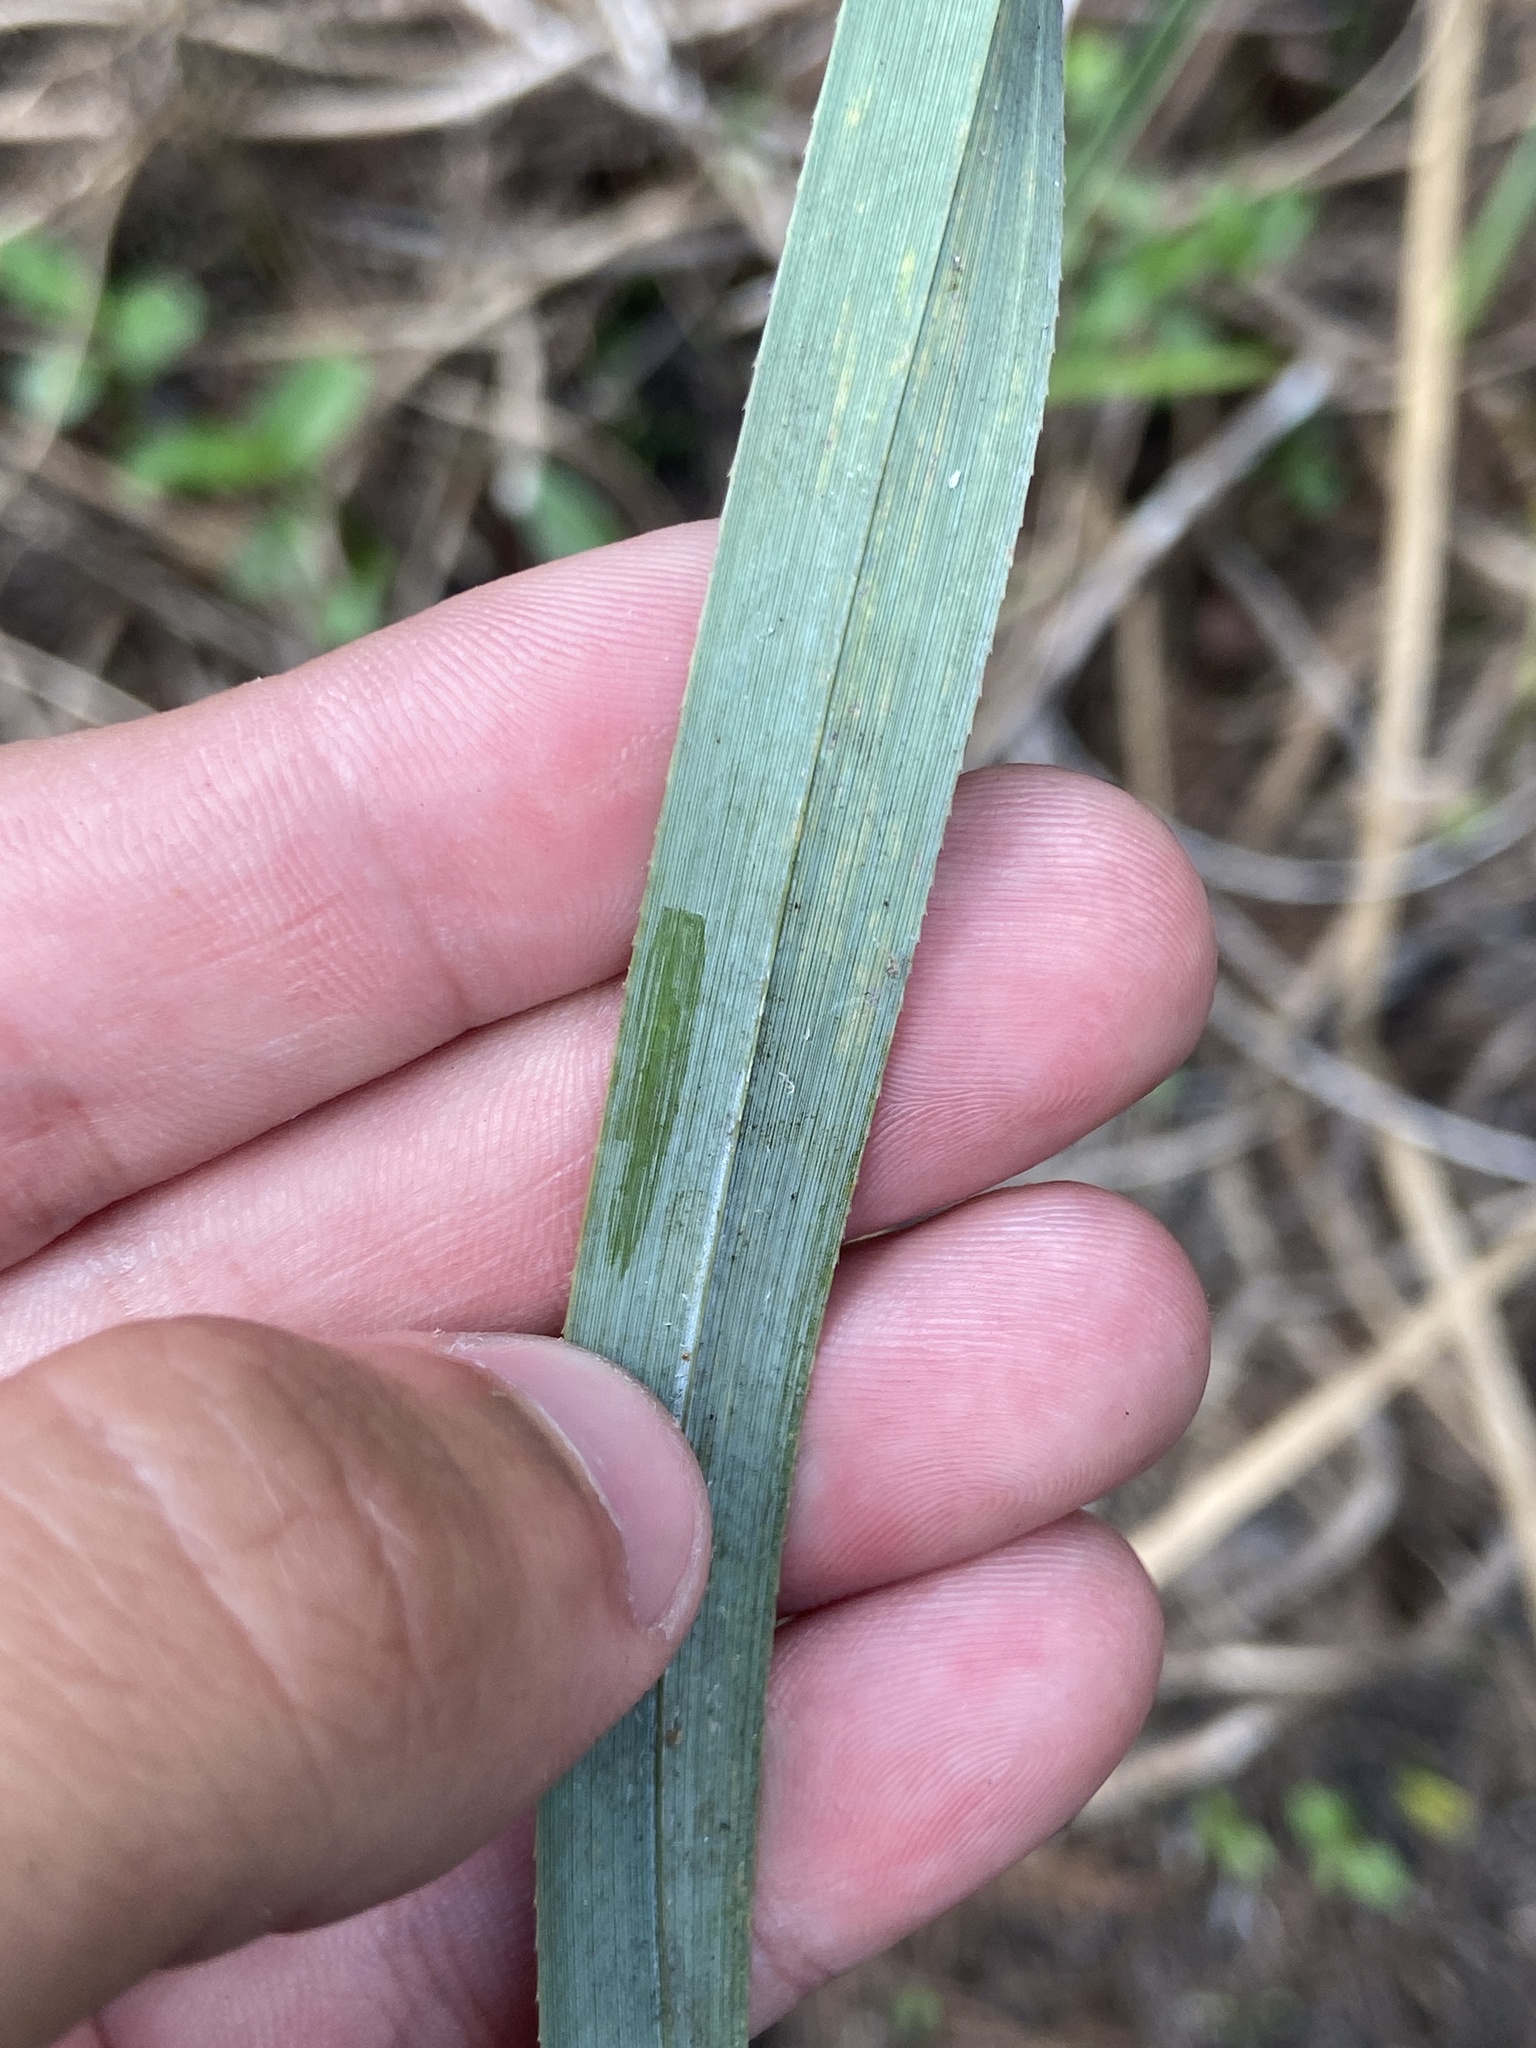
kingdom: Plantae
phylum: Tracheophyta
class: Liliopsida
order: Poales
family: Cyperaceae
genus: Cladium
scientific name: Cladium mariscus
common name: Great fen-sedge
